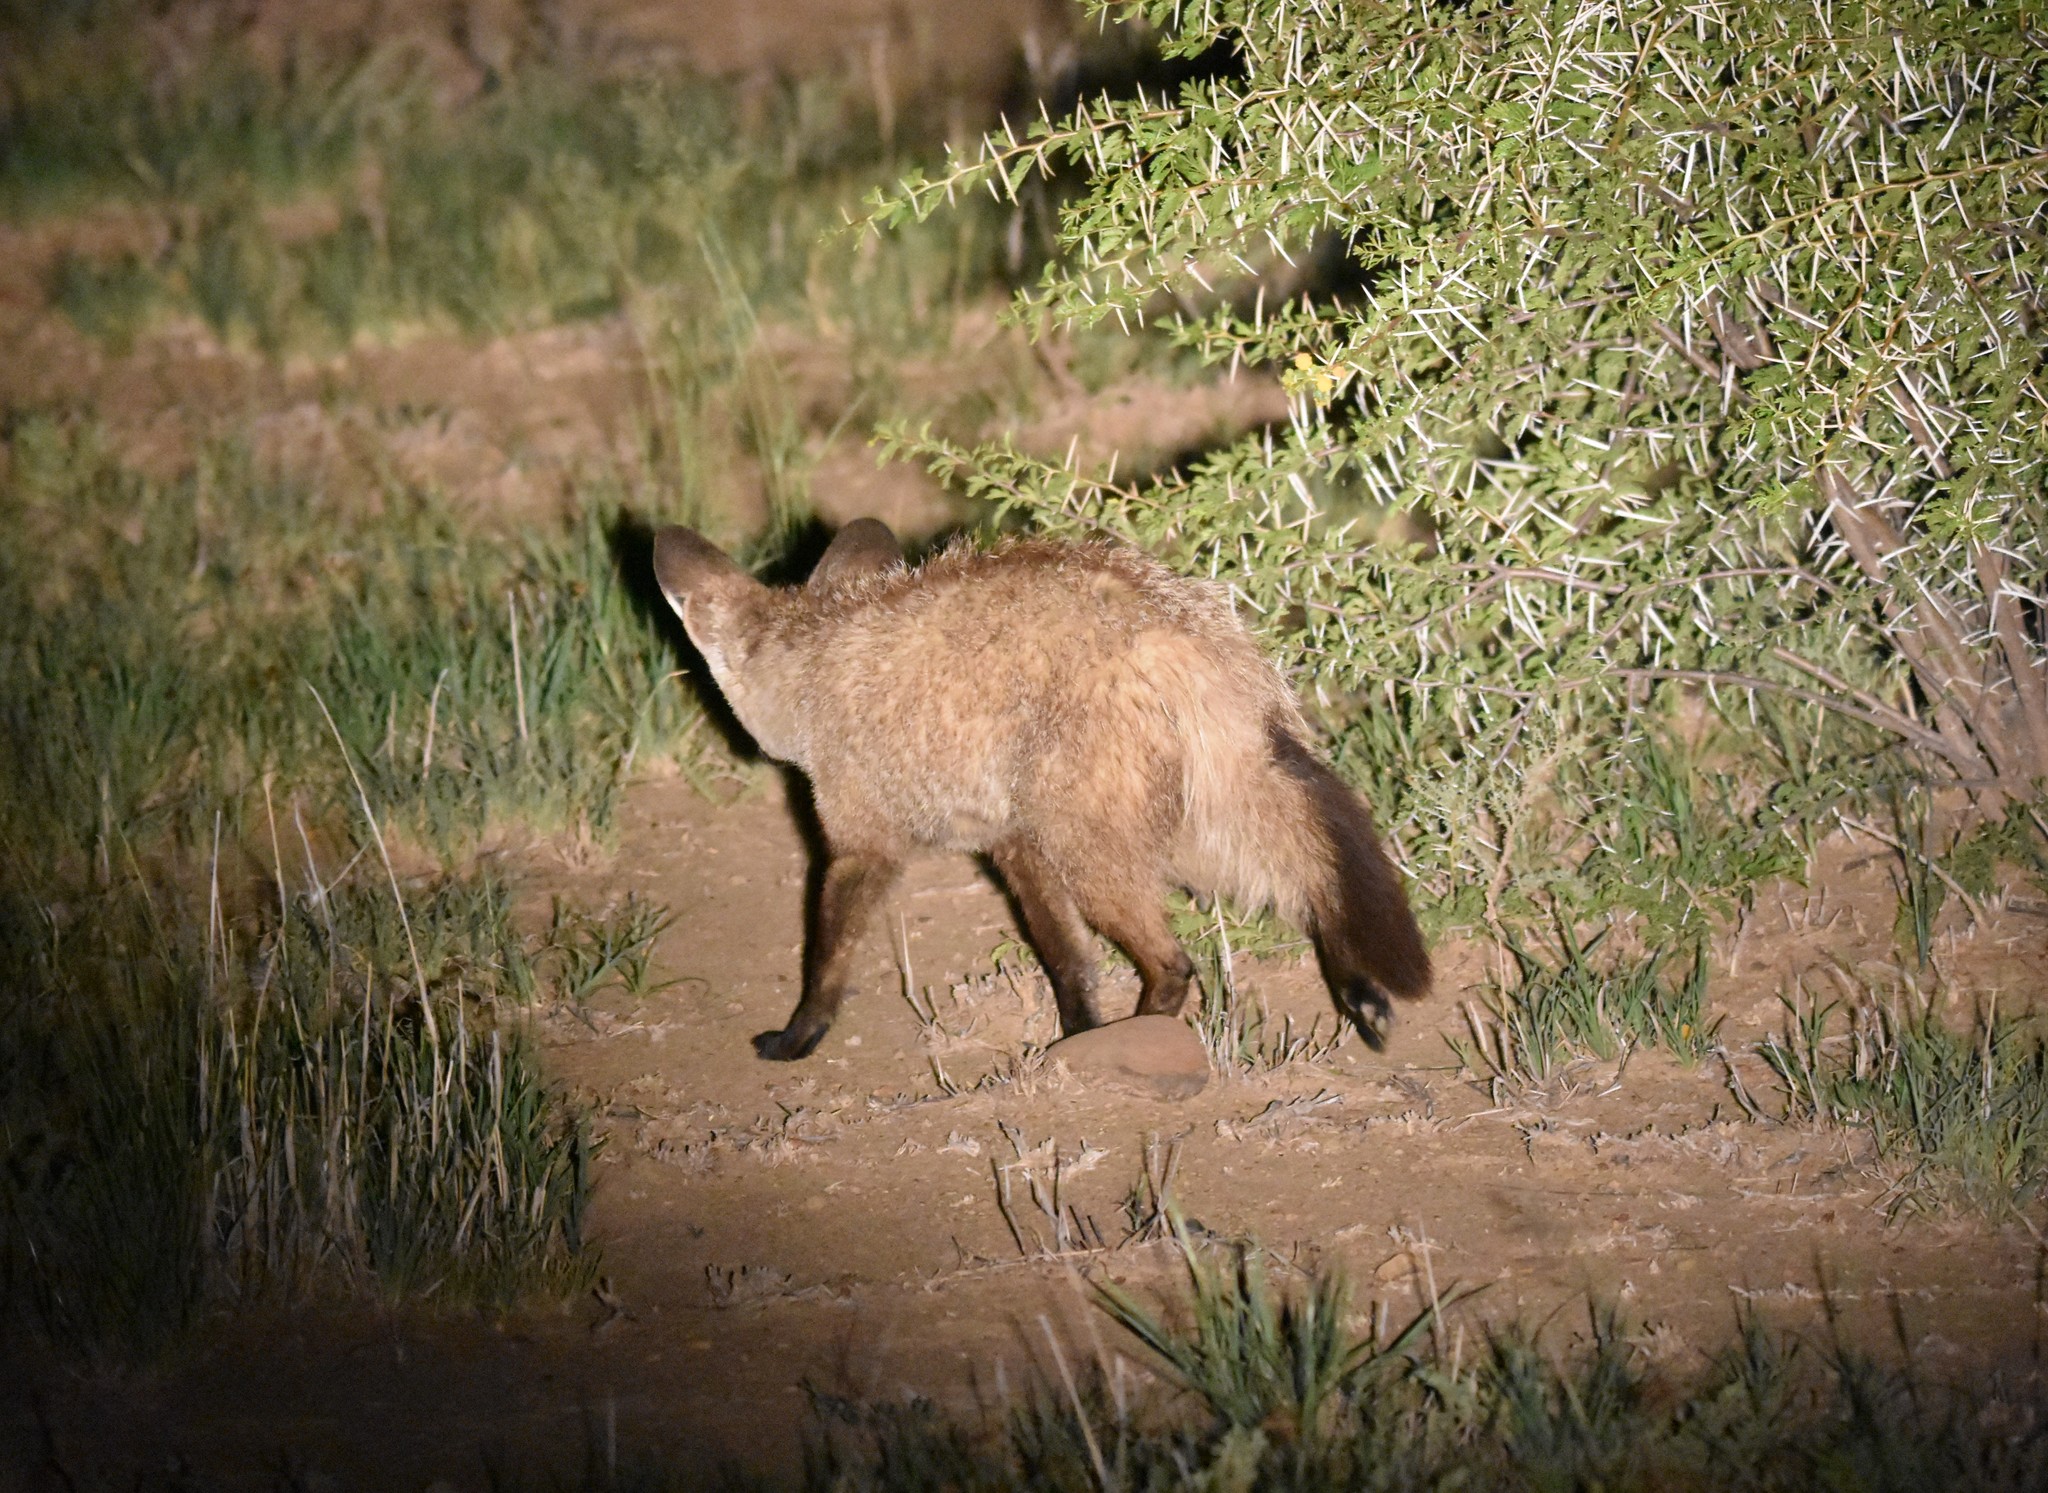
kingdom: Animalia
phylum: Chordata
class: Mammalia
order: Carnivora
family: Canidae
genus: Otocyon
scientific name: Otocyon megalotis
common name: Bat-eared fox
